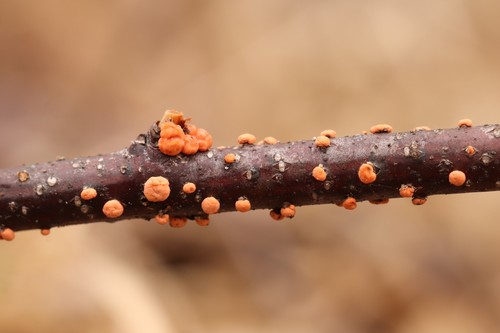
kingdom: Fungi
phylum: Ascomycota
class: Sordariomycetes
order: Hypocreales
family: Nectriaceae
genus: Nectria
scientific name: Nectria cinnabarina
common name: Coral spot
